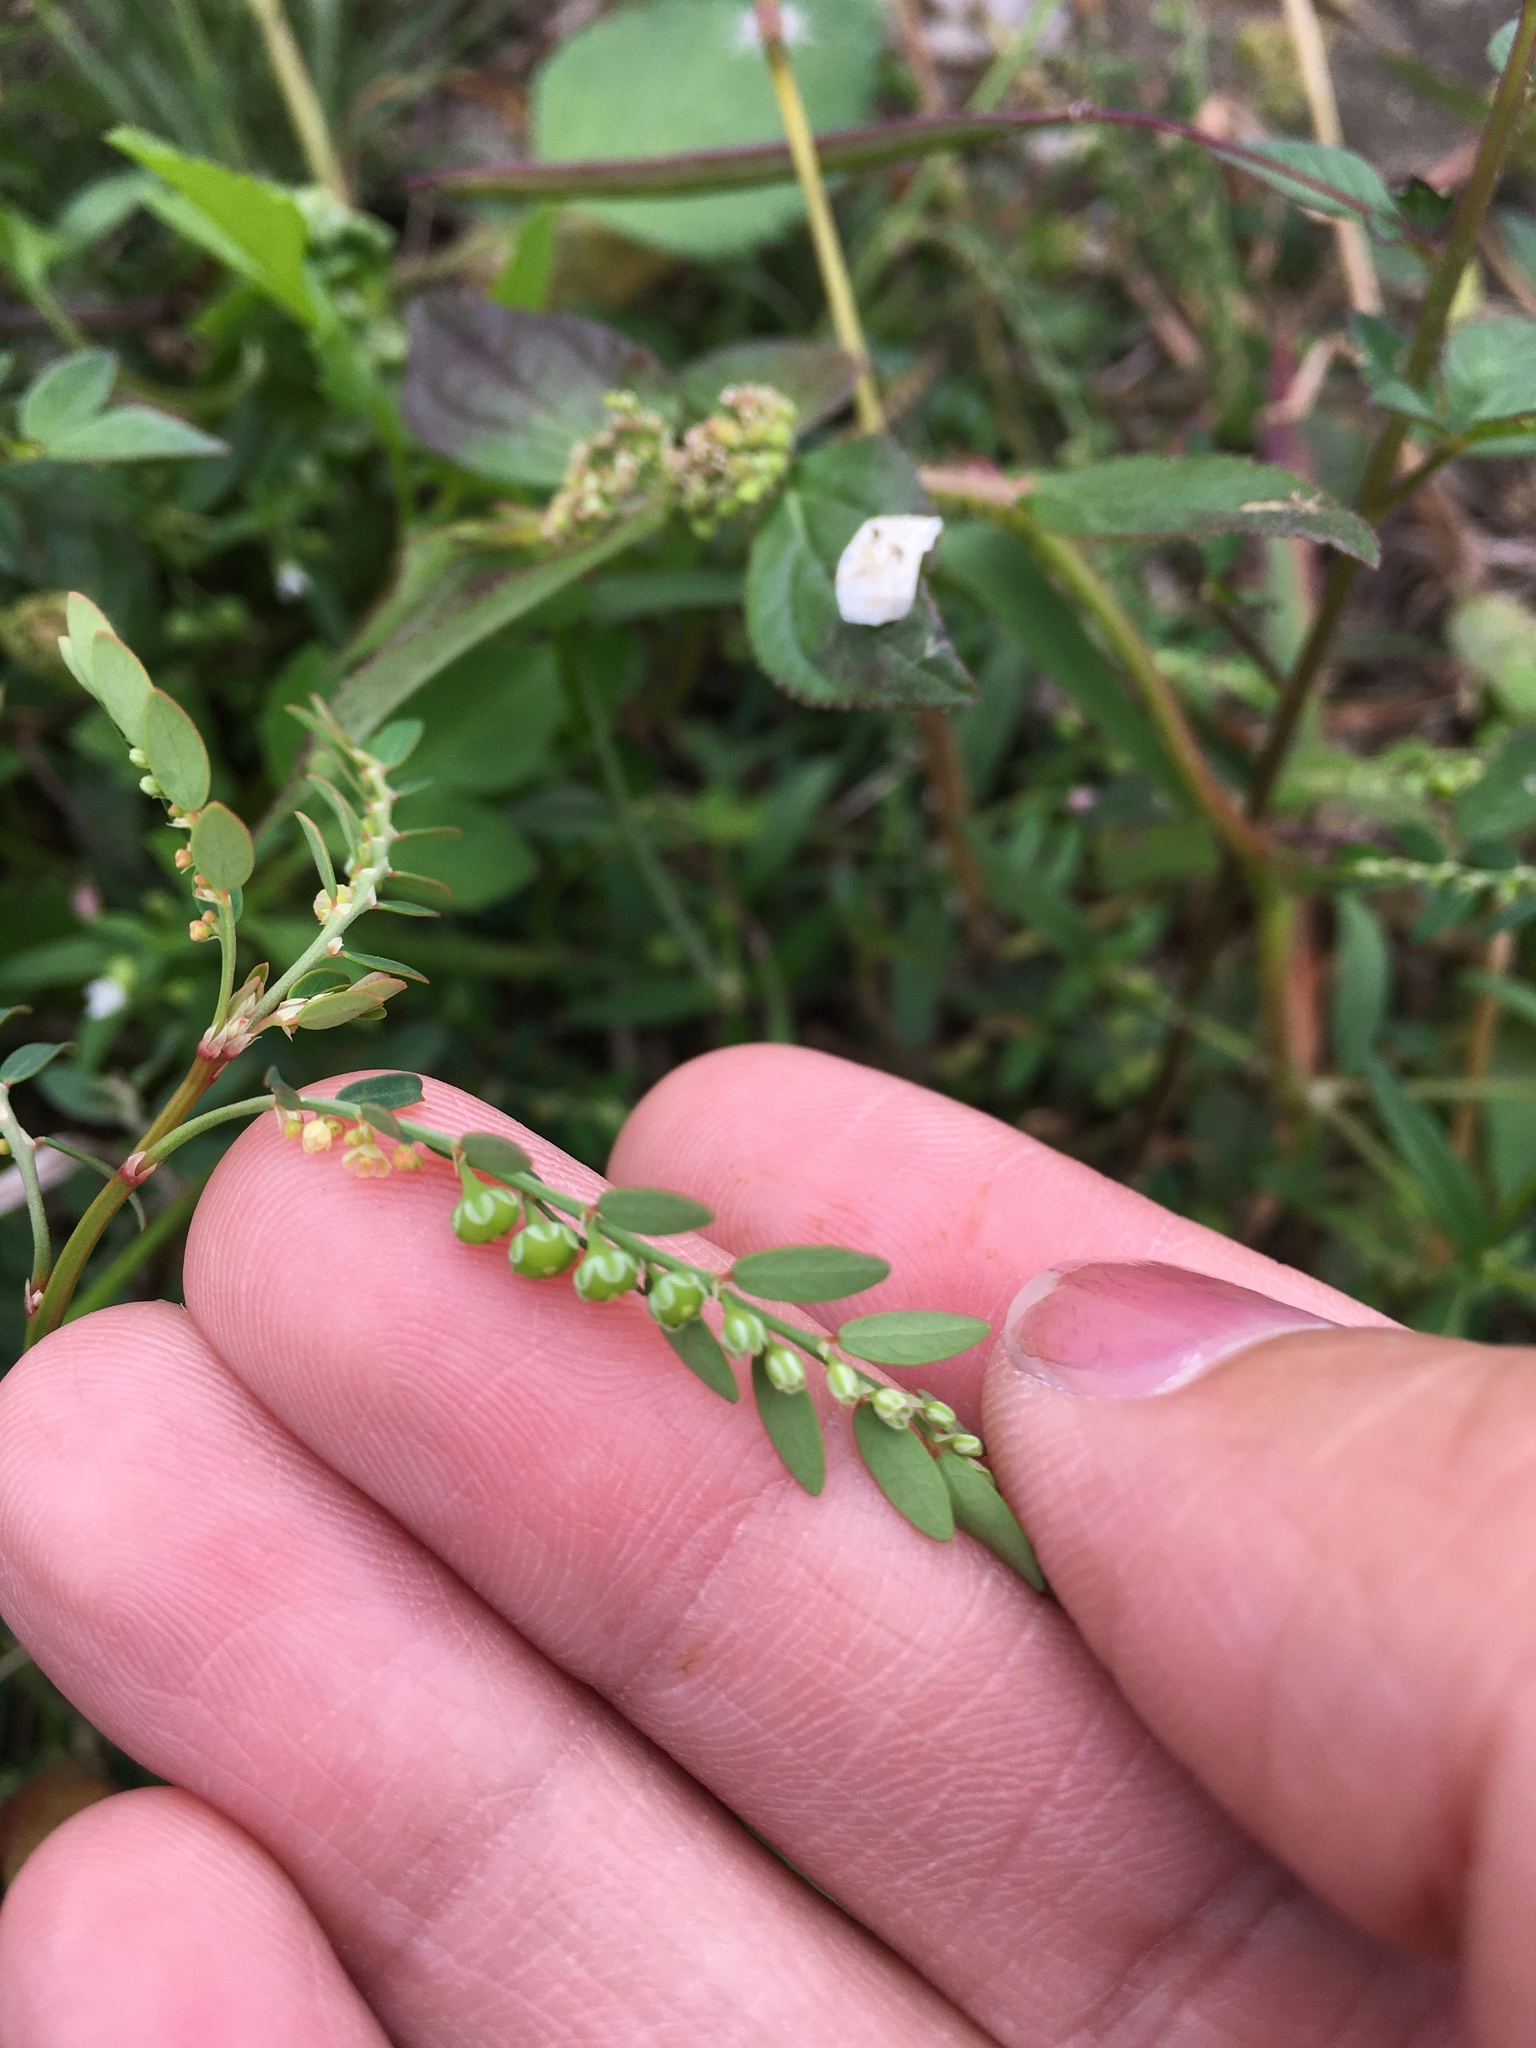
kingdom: Plantae
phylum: Tracheophyta
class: Magnoliopsida
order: Malpighiales
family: Phyllanthaceae
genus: Phyllanthus
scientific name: Phyllanthus debilis
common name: Niruri
